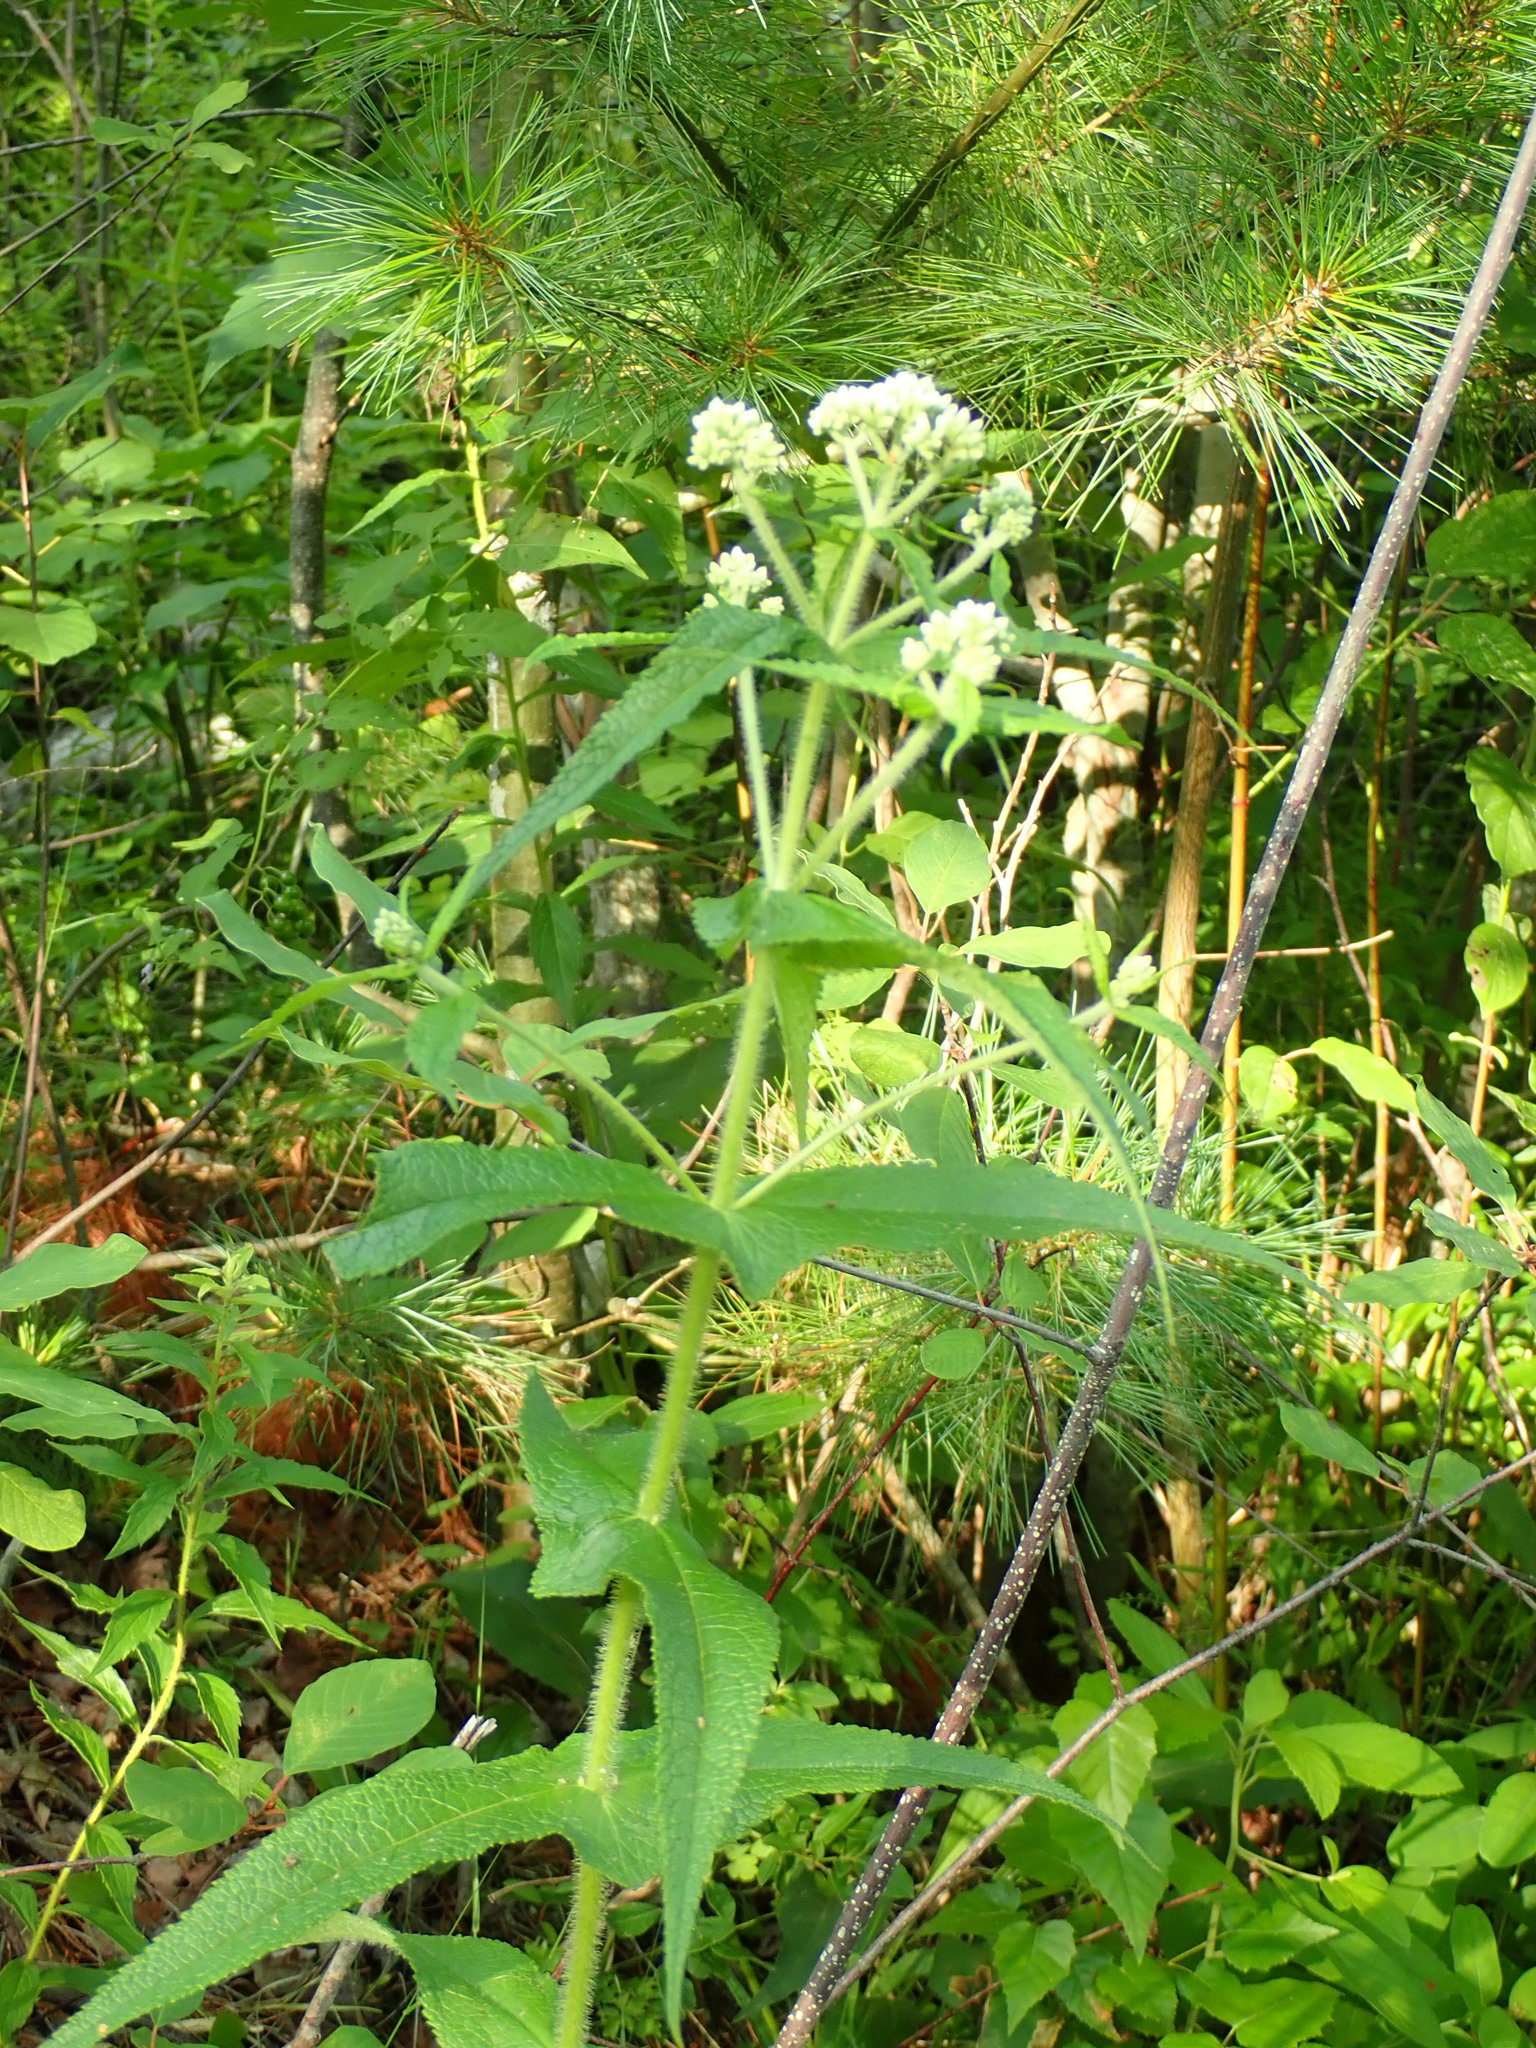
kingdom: Plantae
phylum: Tracheophyta
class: Magnoliopsida
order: Asterales
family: Asteraceae
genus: Eupatorium
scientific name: Eupatorium perfoliatum
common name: Boneset
